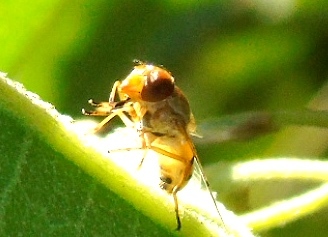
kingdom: Animalia
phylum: Arthropoda
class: Insecta
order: Diptera
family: Syrphidae
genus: Copestylum
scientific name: Copestylum
